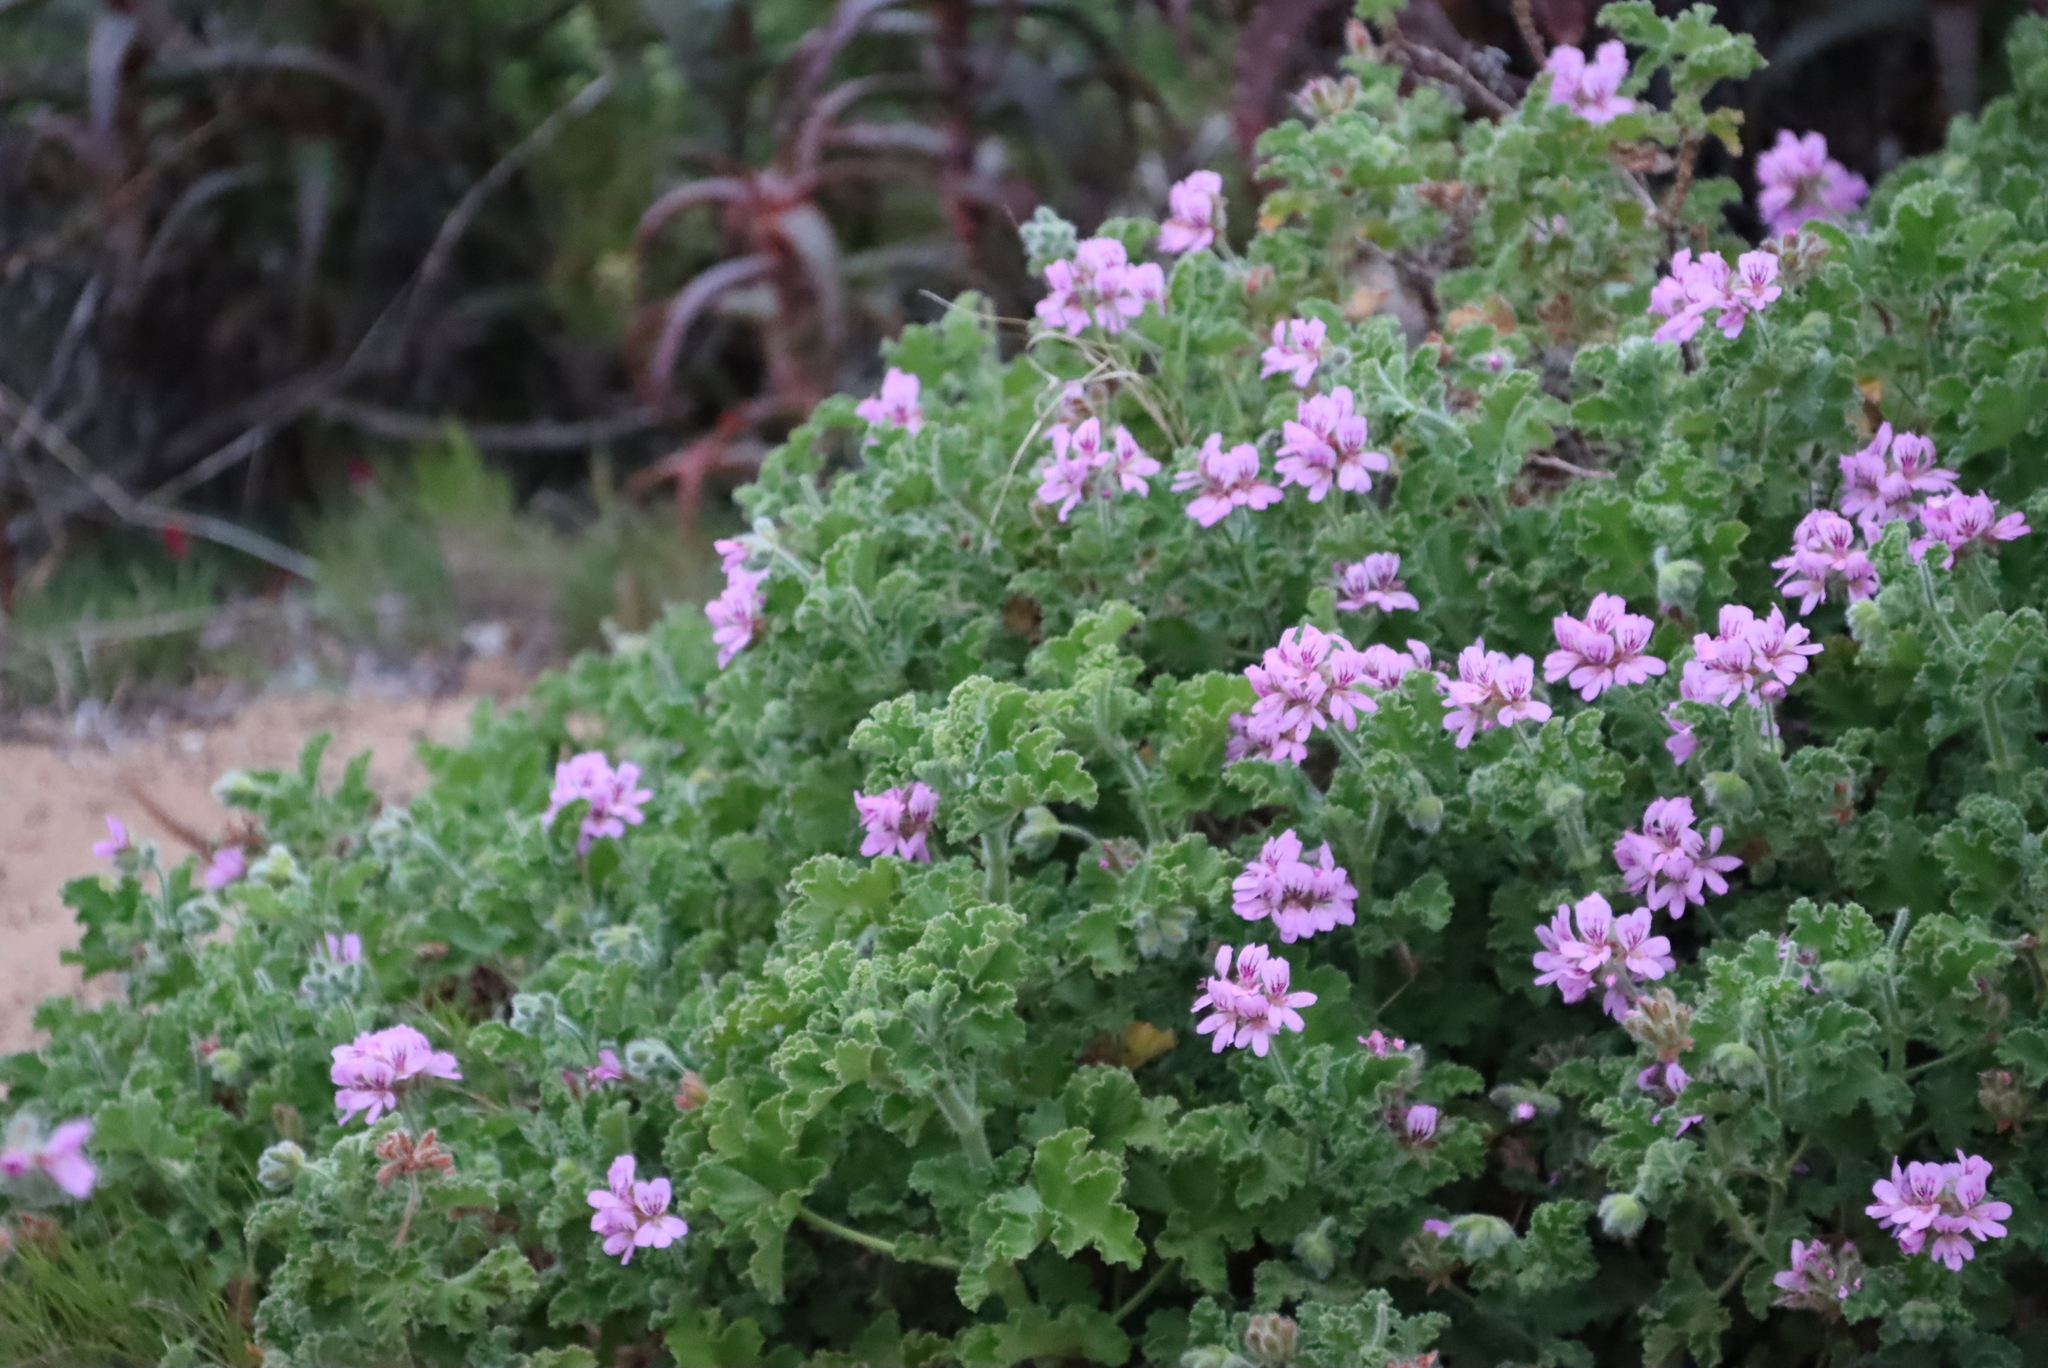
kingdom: Plantae
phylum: Tracheophyta
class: Magnoliopsida
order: Geraniales
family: Geraniaceae
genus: Pelargonium
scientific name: Pelargonium capitatum
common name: Rose scented geranium
